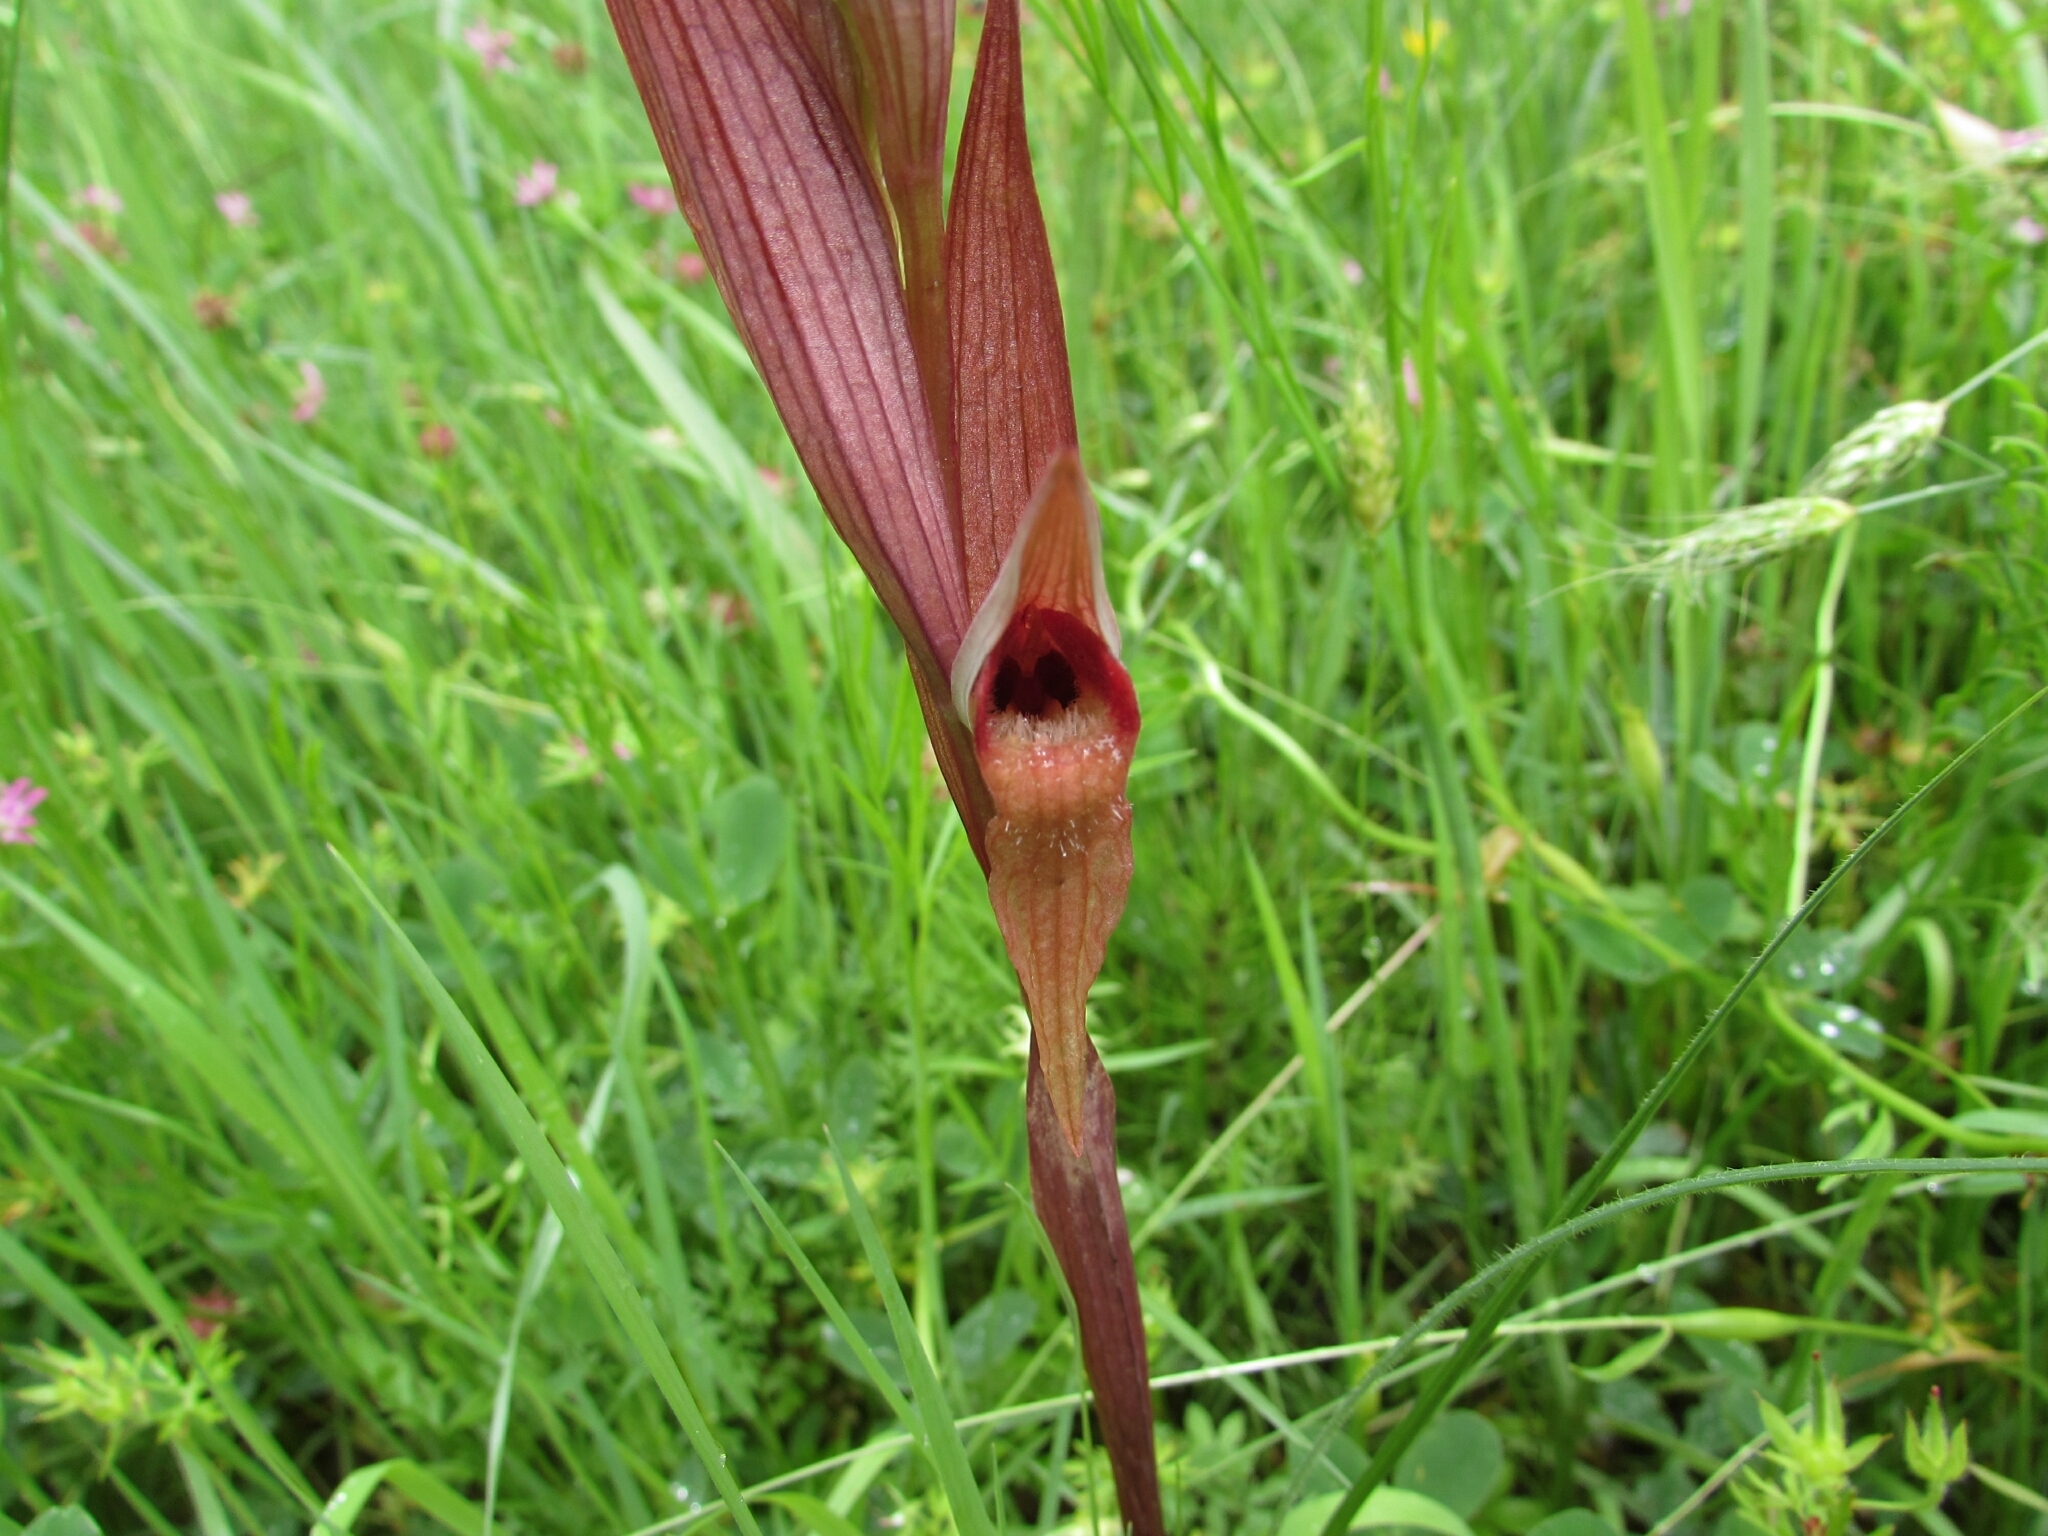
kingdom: Plantae
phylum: Tracheophyta
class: Liliopsida
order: Asparagales
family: Orchidaceae
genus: Serapias
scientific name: Serapias vomeracea
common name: Long-lipped tongue-orchid
